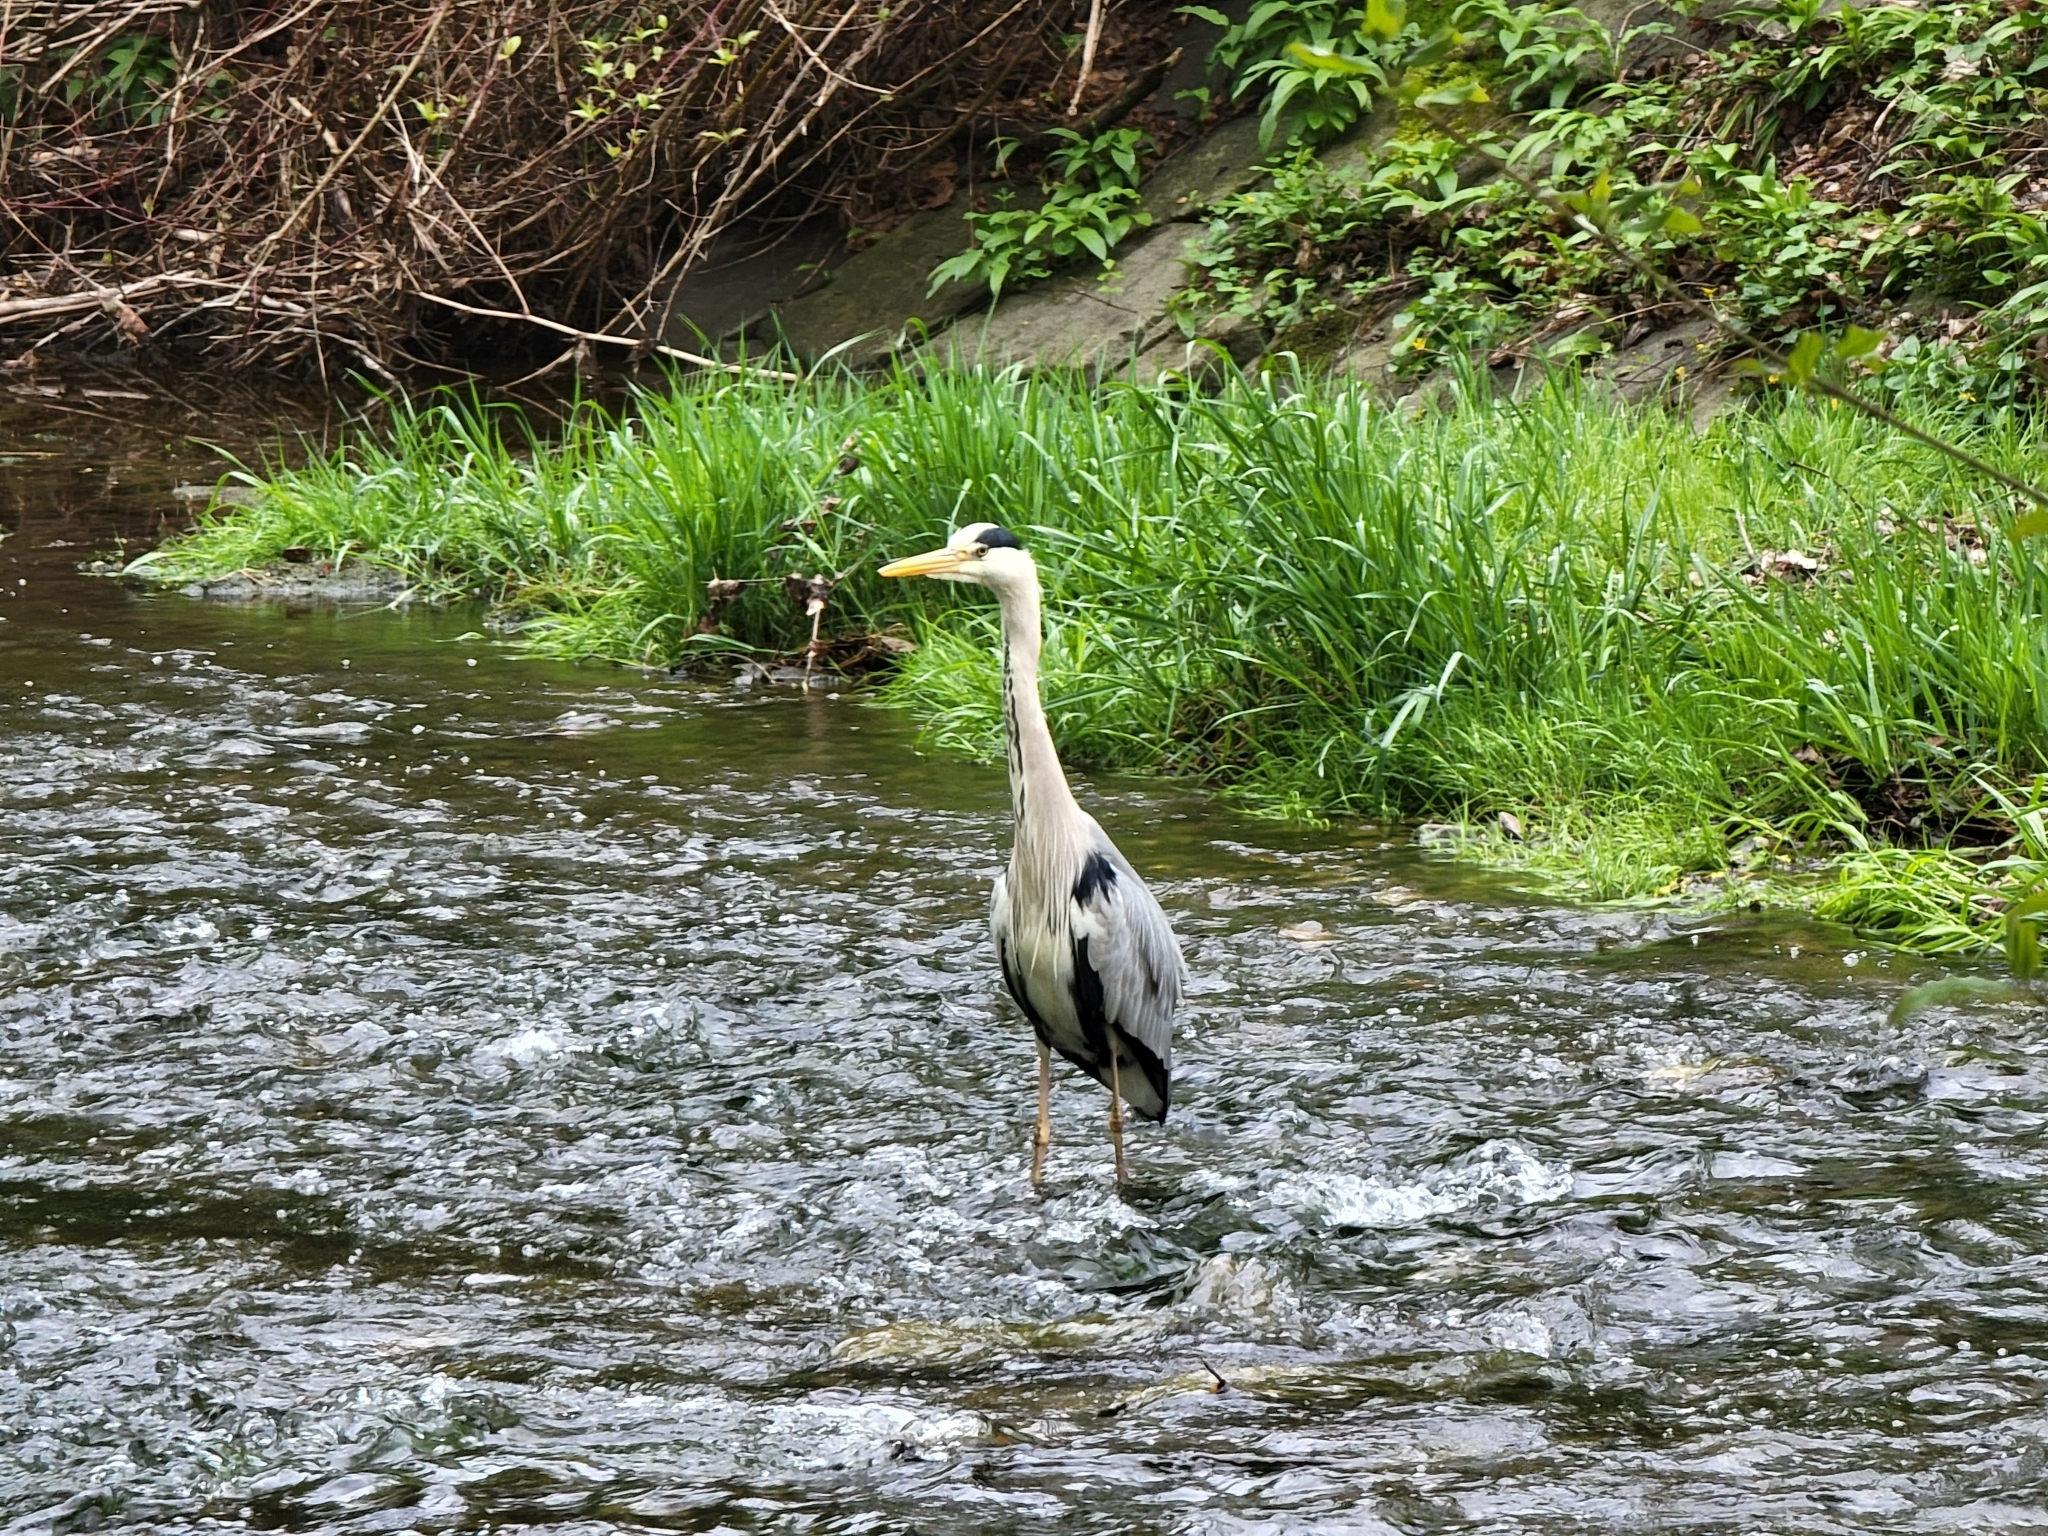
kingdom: Animalia
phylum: Chordata
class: Aves
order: Pelecaniformes
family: Ardeidae
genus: Ardea
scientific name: Ardea cinerea
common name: Grey heron
